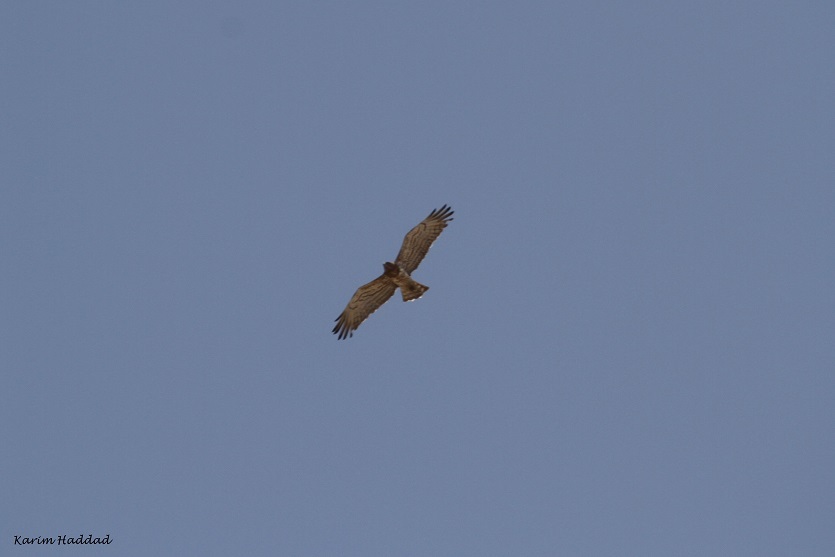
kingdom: Animalia
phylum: Chordata
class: Aves
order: Accipitriformes
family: Accipitridae
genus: Circaetus
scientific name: Circaetus gallicus
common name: Short-toed snake eagle
